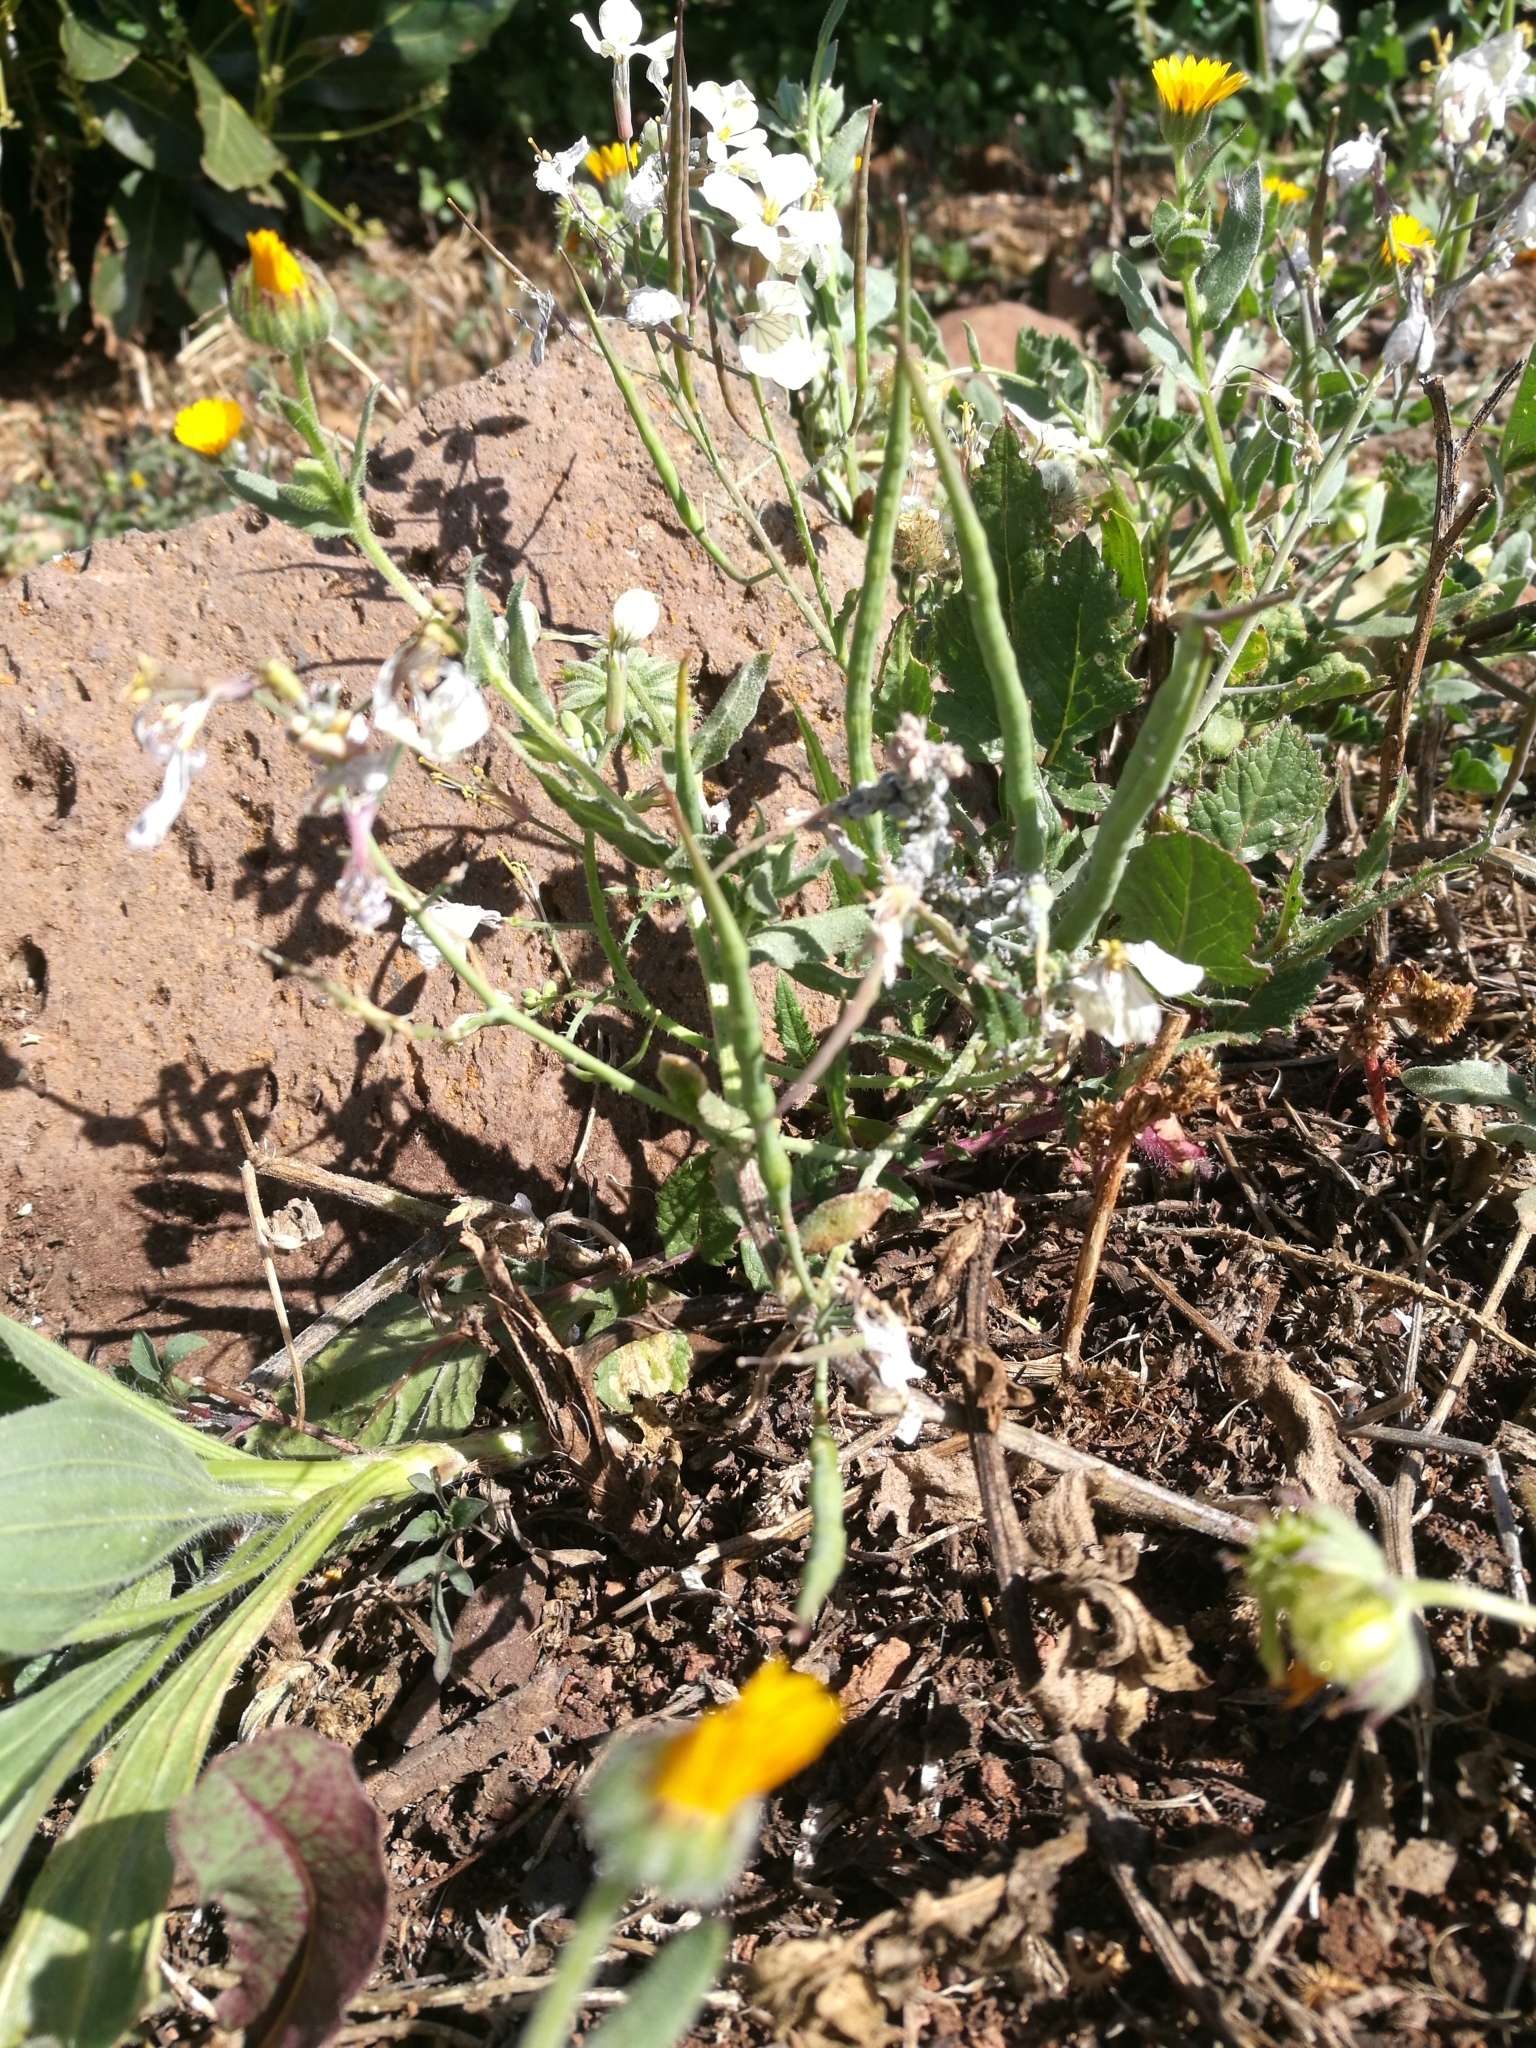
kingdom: Plantae
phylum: Tracheophyta
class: Magnoliopsida
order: Brassicales
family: Brassicaceae
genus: Raphanus
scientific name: Raphanus raphanistrum
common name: Wild radish
